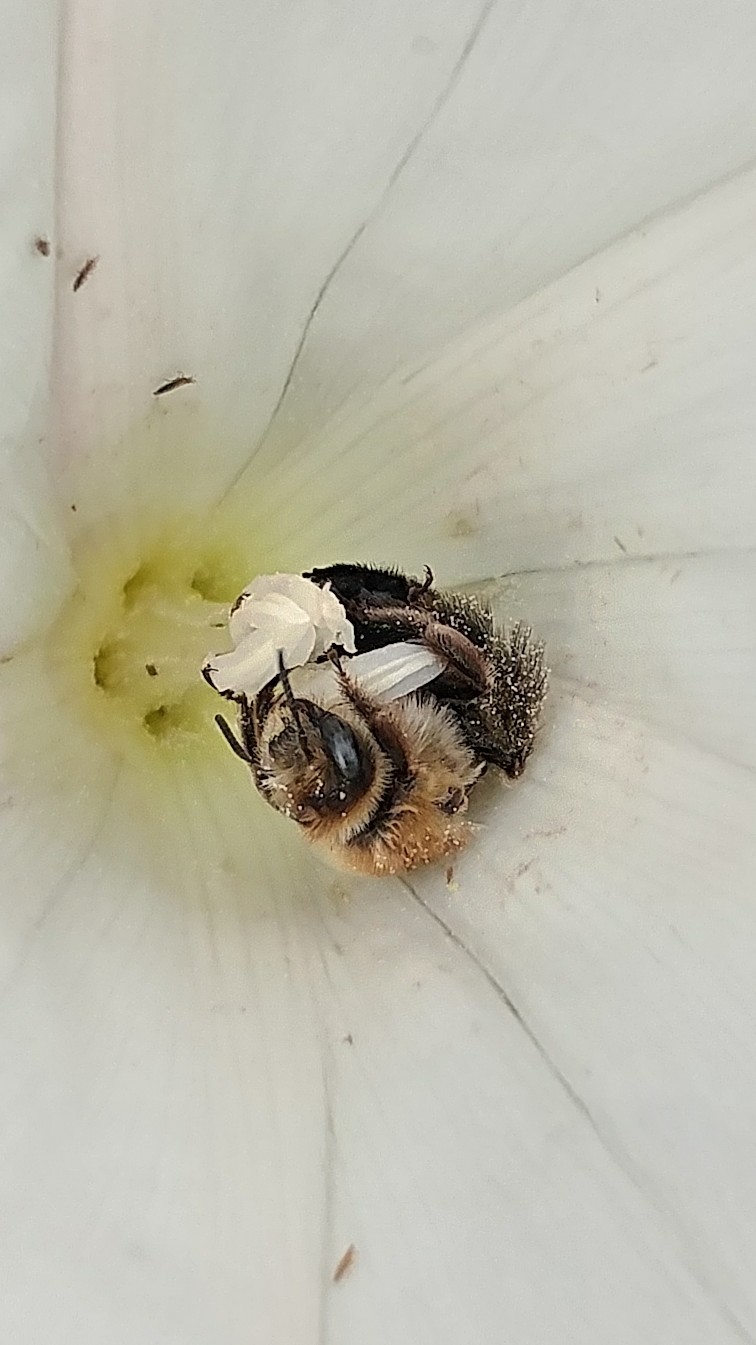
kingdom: Animalia
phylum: Arthropoda
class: Insecta
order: Hymenoptera
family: Apidae
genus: Diadasia
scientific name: Diadasia bituberculata
